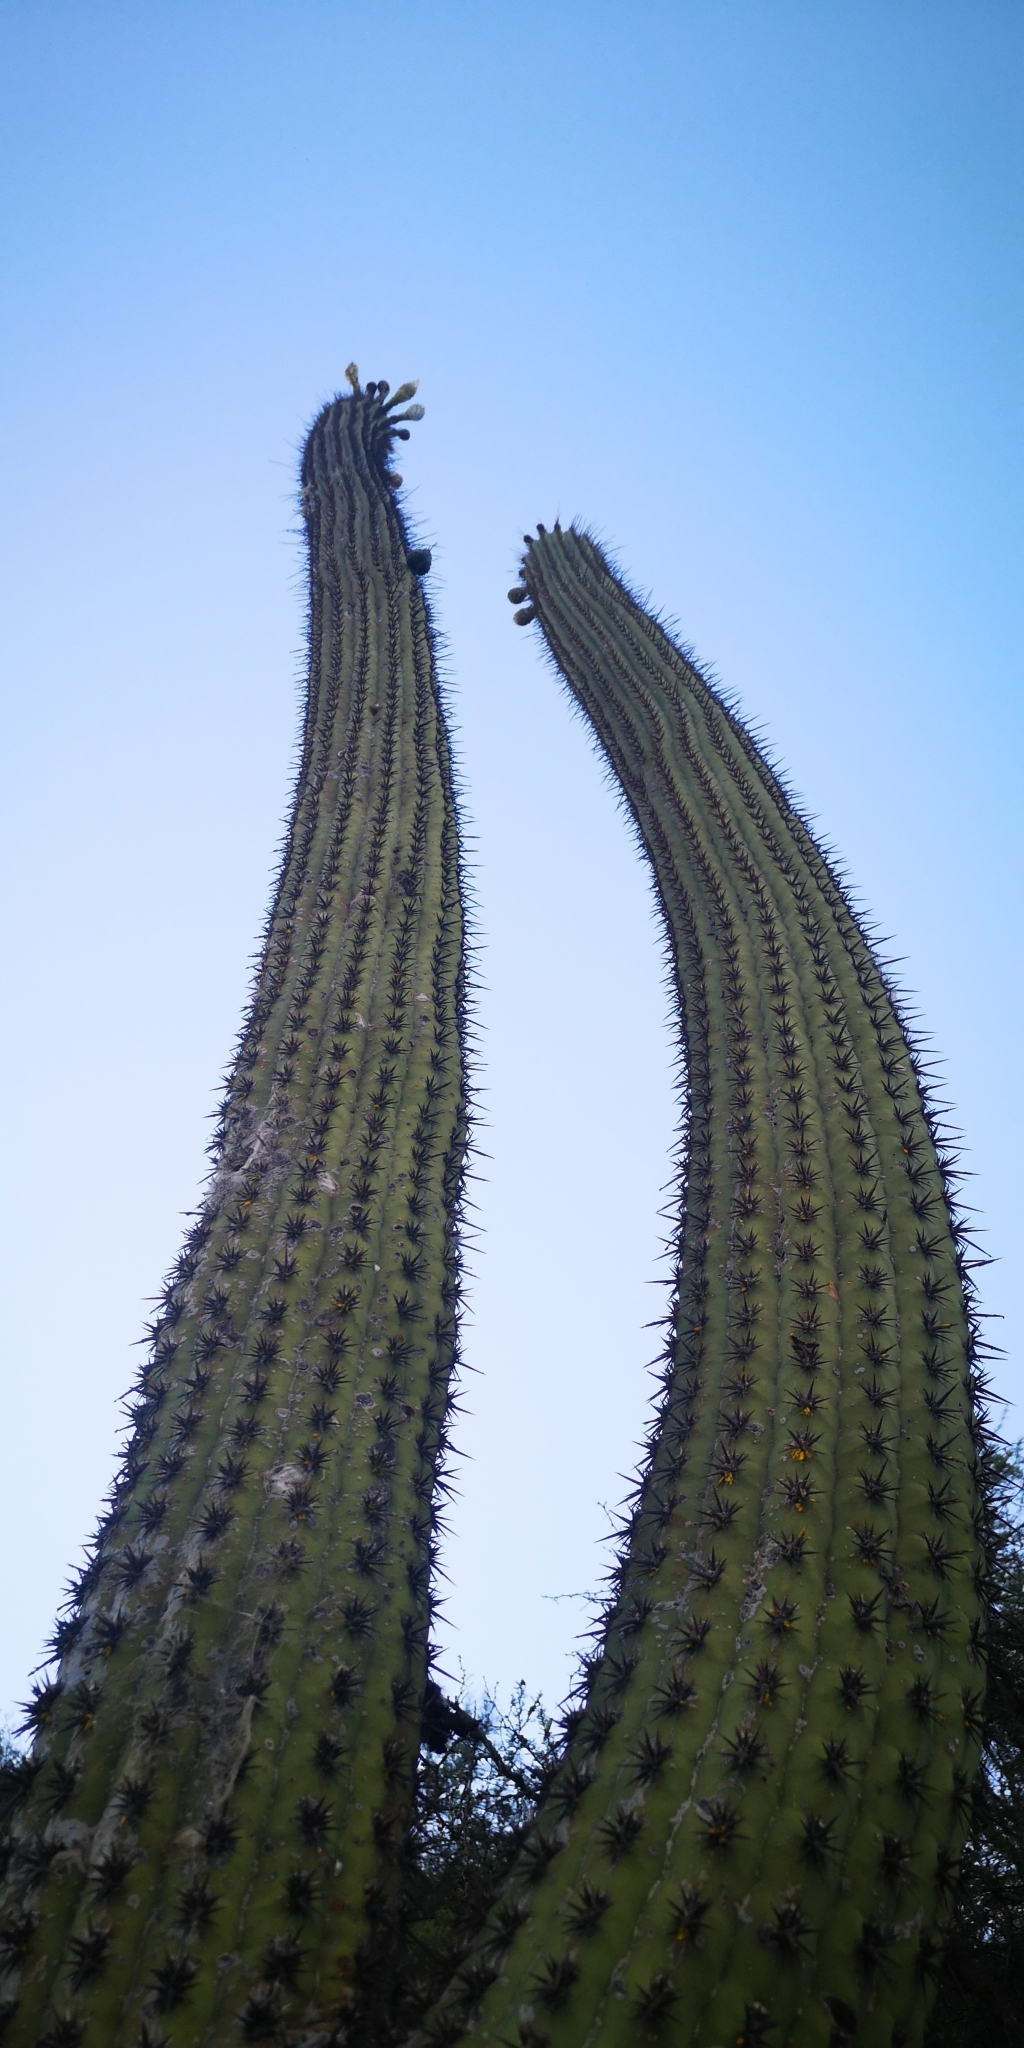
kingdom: Plantae
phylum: Tracheophyta
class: Magnoliopsida
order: Caryophyllales
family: Cactaceae
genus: Leucostele
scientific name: Leucostele chiloensis
